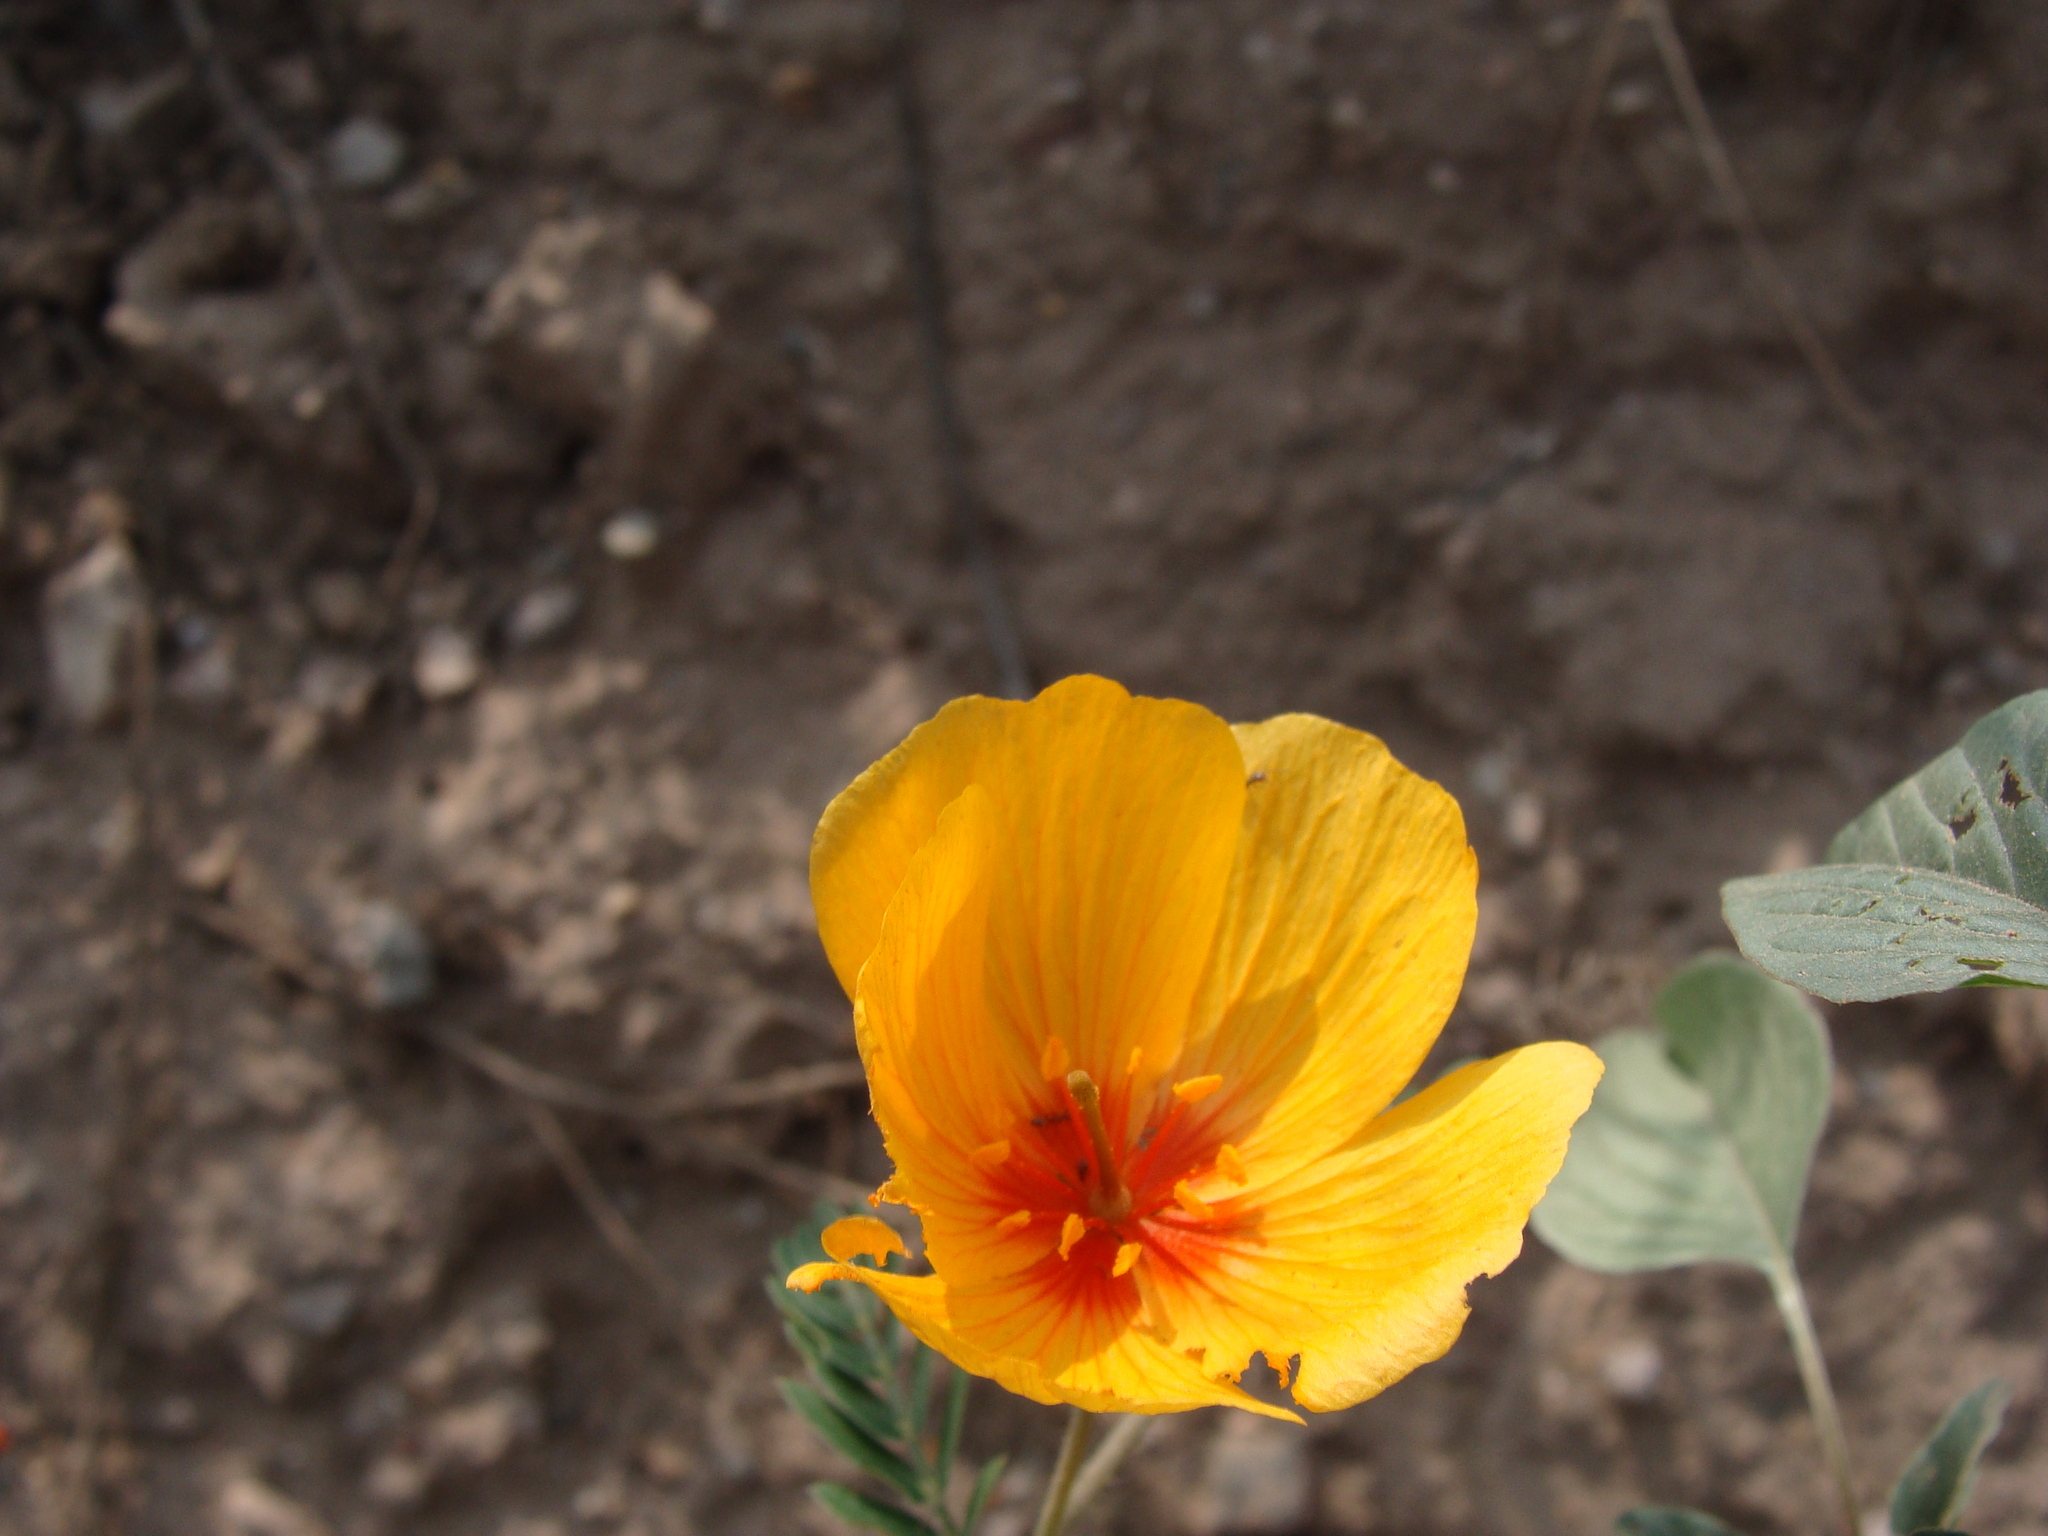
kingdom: Plantae
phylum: Tracheophyta
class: Magnoliopsida
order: Zygophyllales
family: Zygophyllaceae
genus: Kallstroemia
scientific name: Kallstroemia grandiflora
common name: Arizona-poppy
